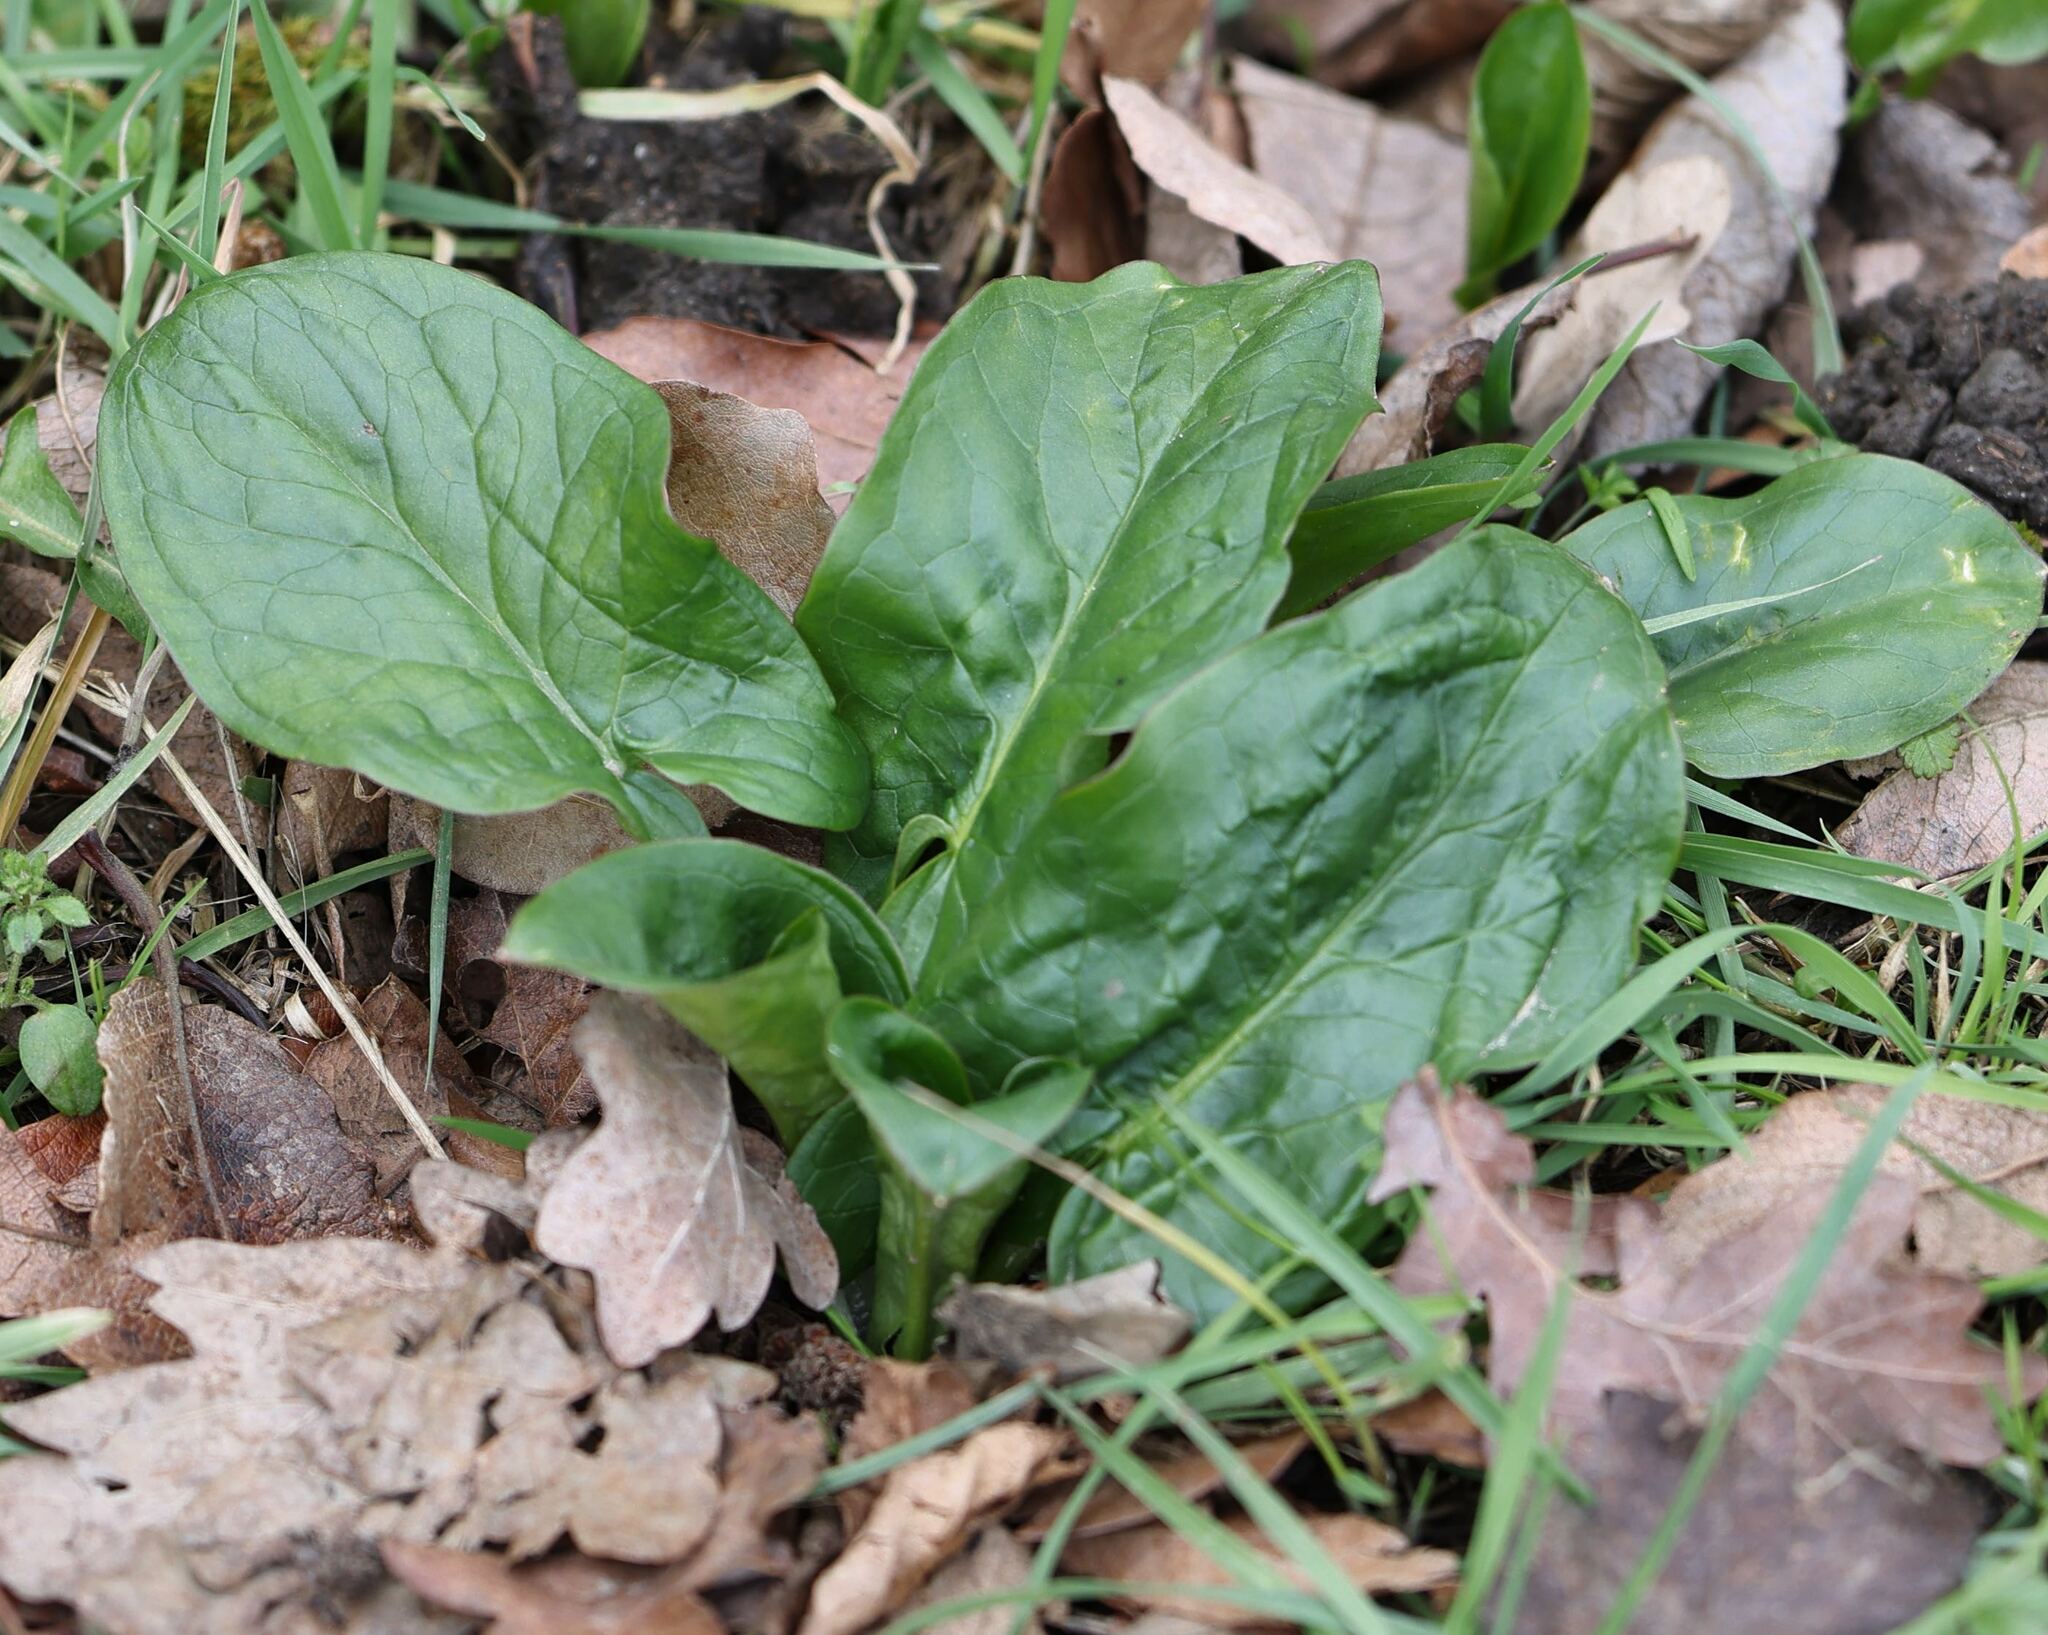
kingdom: Plantae
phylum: Tracheophyta
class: Liliopsida
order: Alismatales
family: Araceae
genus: Arum
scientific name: Arum maculatum
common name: Lords-and-ladies
